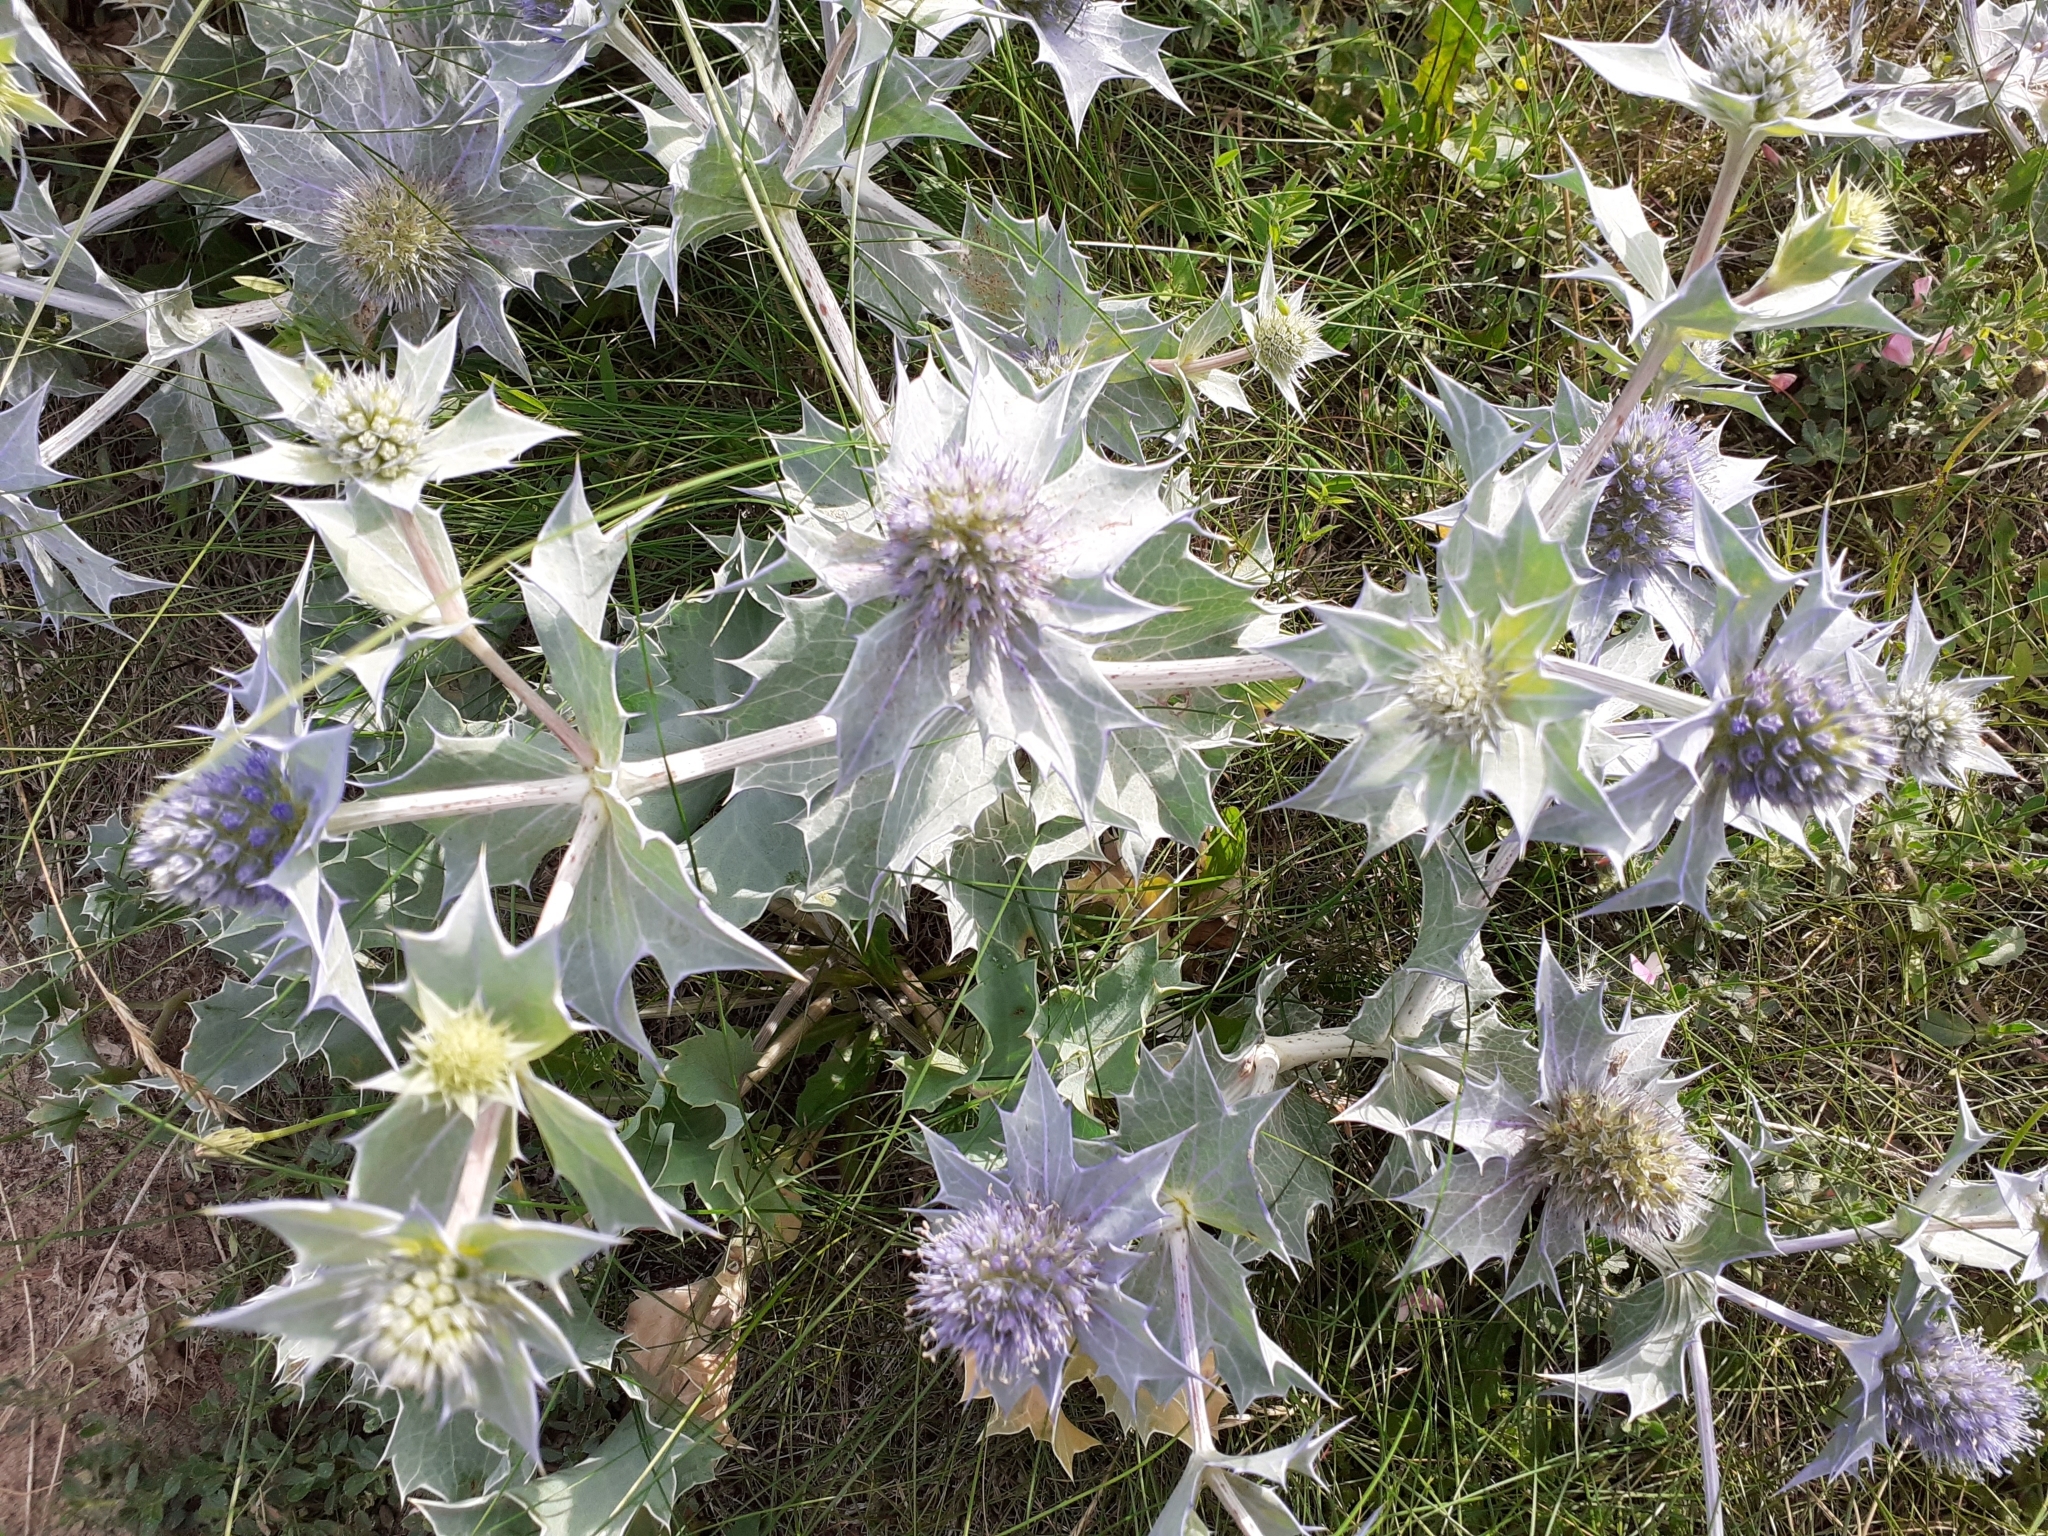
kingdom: Plantae
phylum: Tracheophyta
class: Magnoliopsida
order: Apiales
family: Apiaceae
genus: Eryngium
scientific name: Eryngium maritimum
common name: Sea-holly
